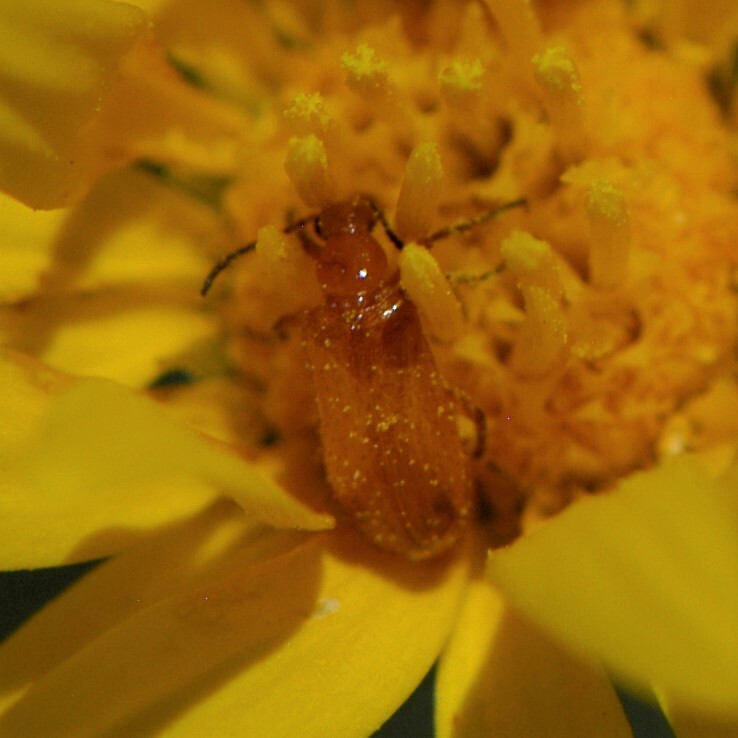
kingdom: Animalia
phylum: Arthropoda
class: Insecta
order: Coleoptera
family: Meloidae
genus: Gnathium
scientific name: Gnathium nitidum
